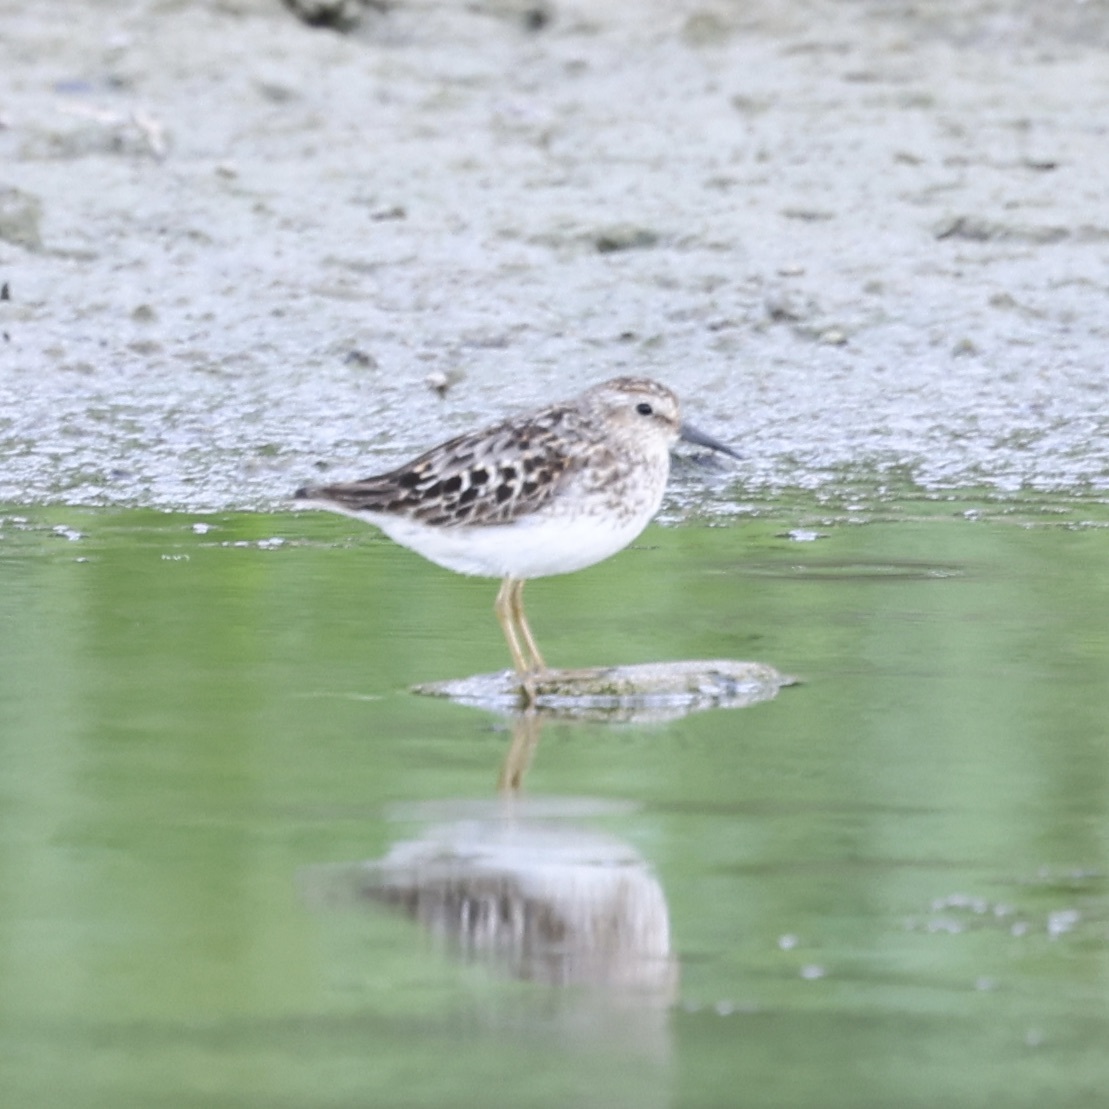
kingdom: Animalia
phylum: Chordata
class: Aves
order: Charadriiformes
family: Scolopacidae
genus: Calidris
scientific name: Calidris minutilla
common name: Least sandpiper
